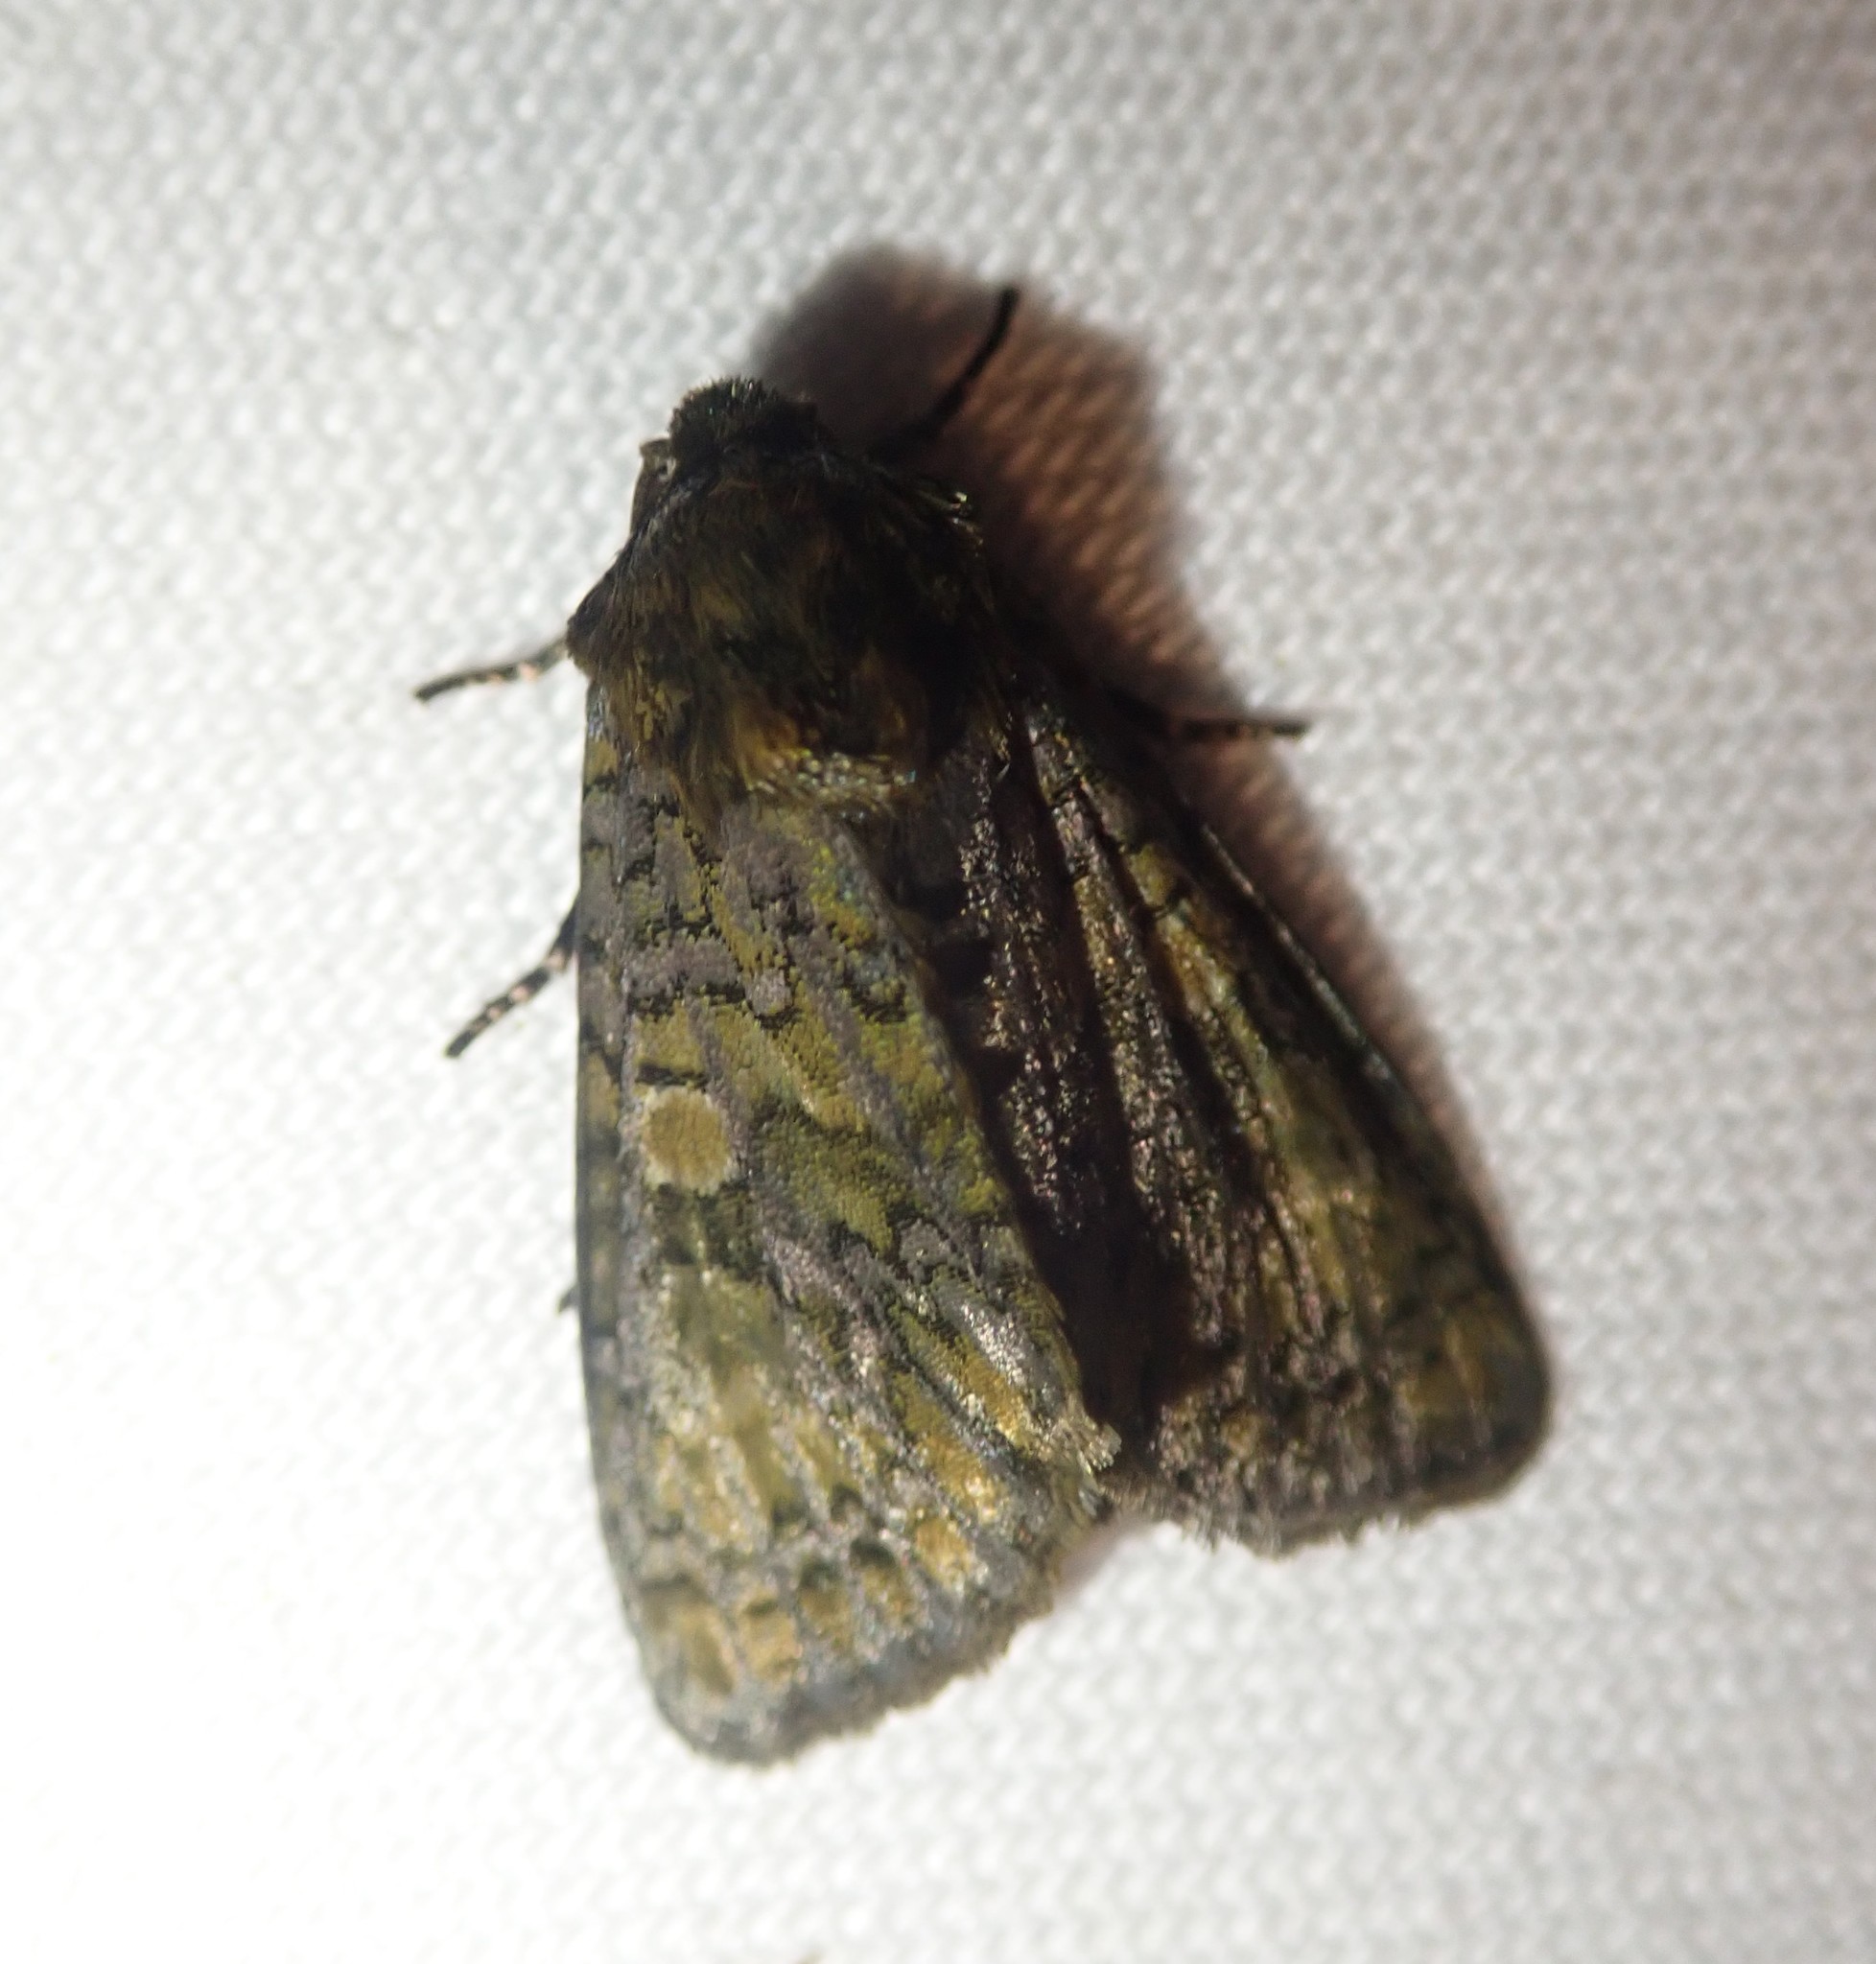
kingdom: Animalia
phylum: Arthropoda
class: Insecta
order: Lepidoptera
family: Noctuidae
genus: Craniophora
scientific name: Craniophora ligustri
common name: Coronet
